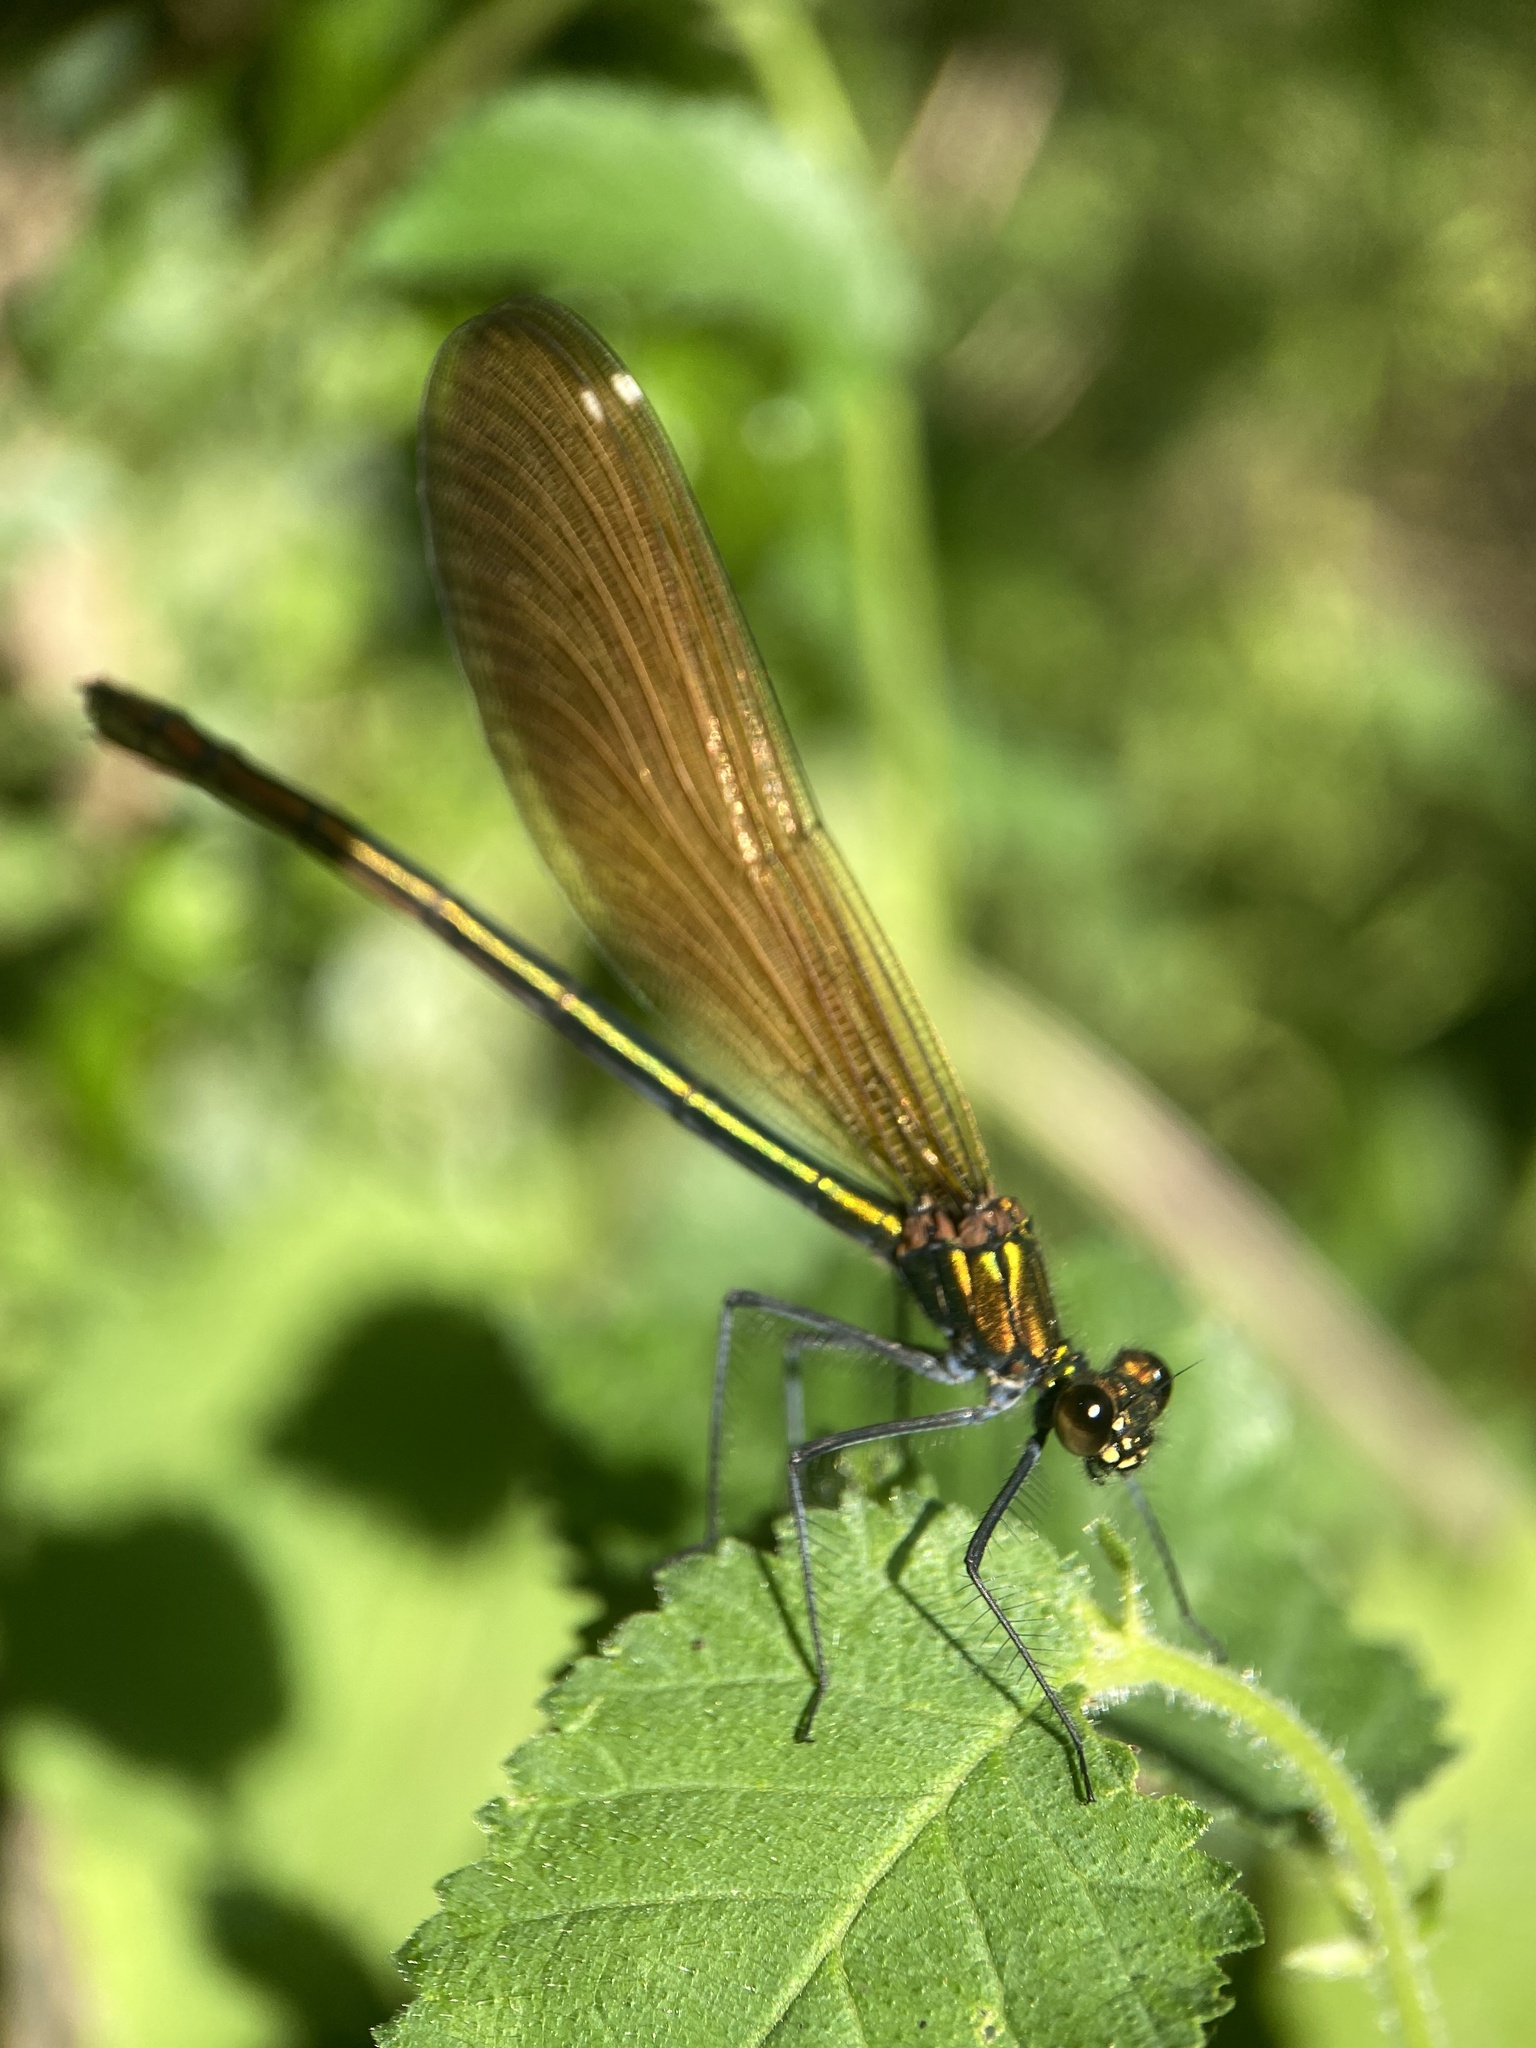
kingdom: Animalia
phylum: Arthropoda
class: Insecta
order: Odonata
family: Calopterygidae
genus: Calopteryx
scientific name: Calopteryx virgo
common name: Beautiful demoiselle
